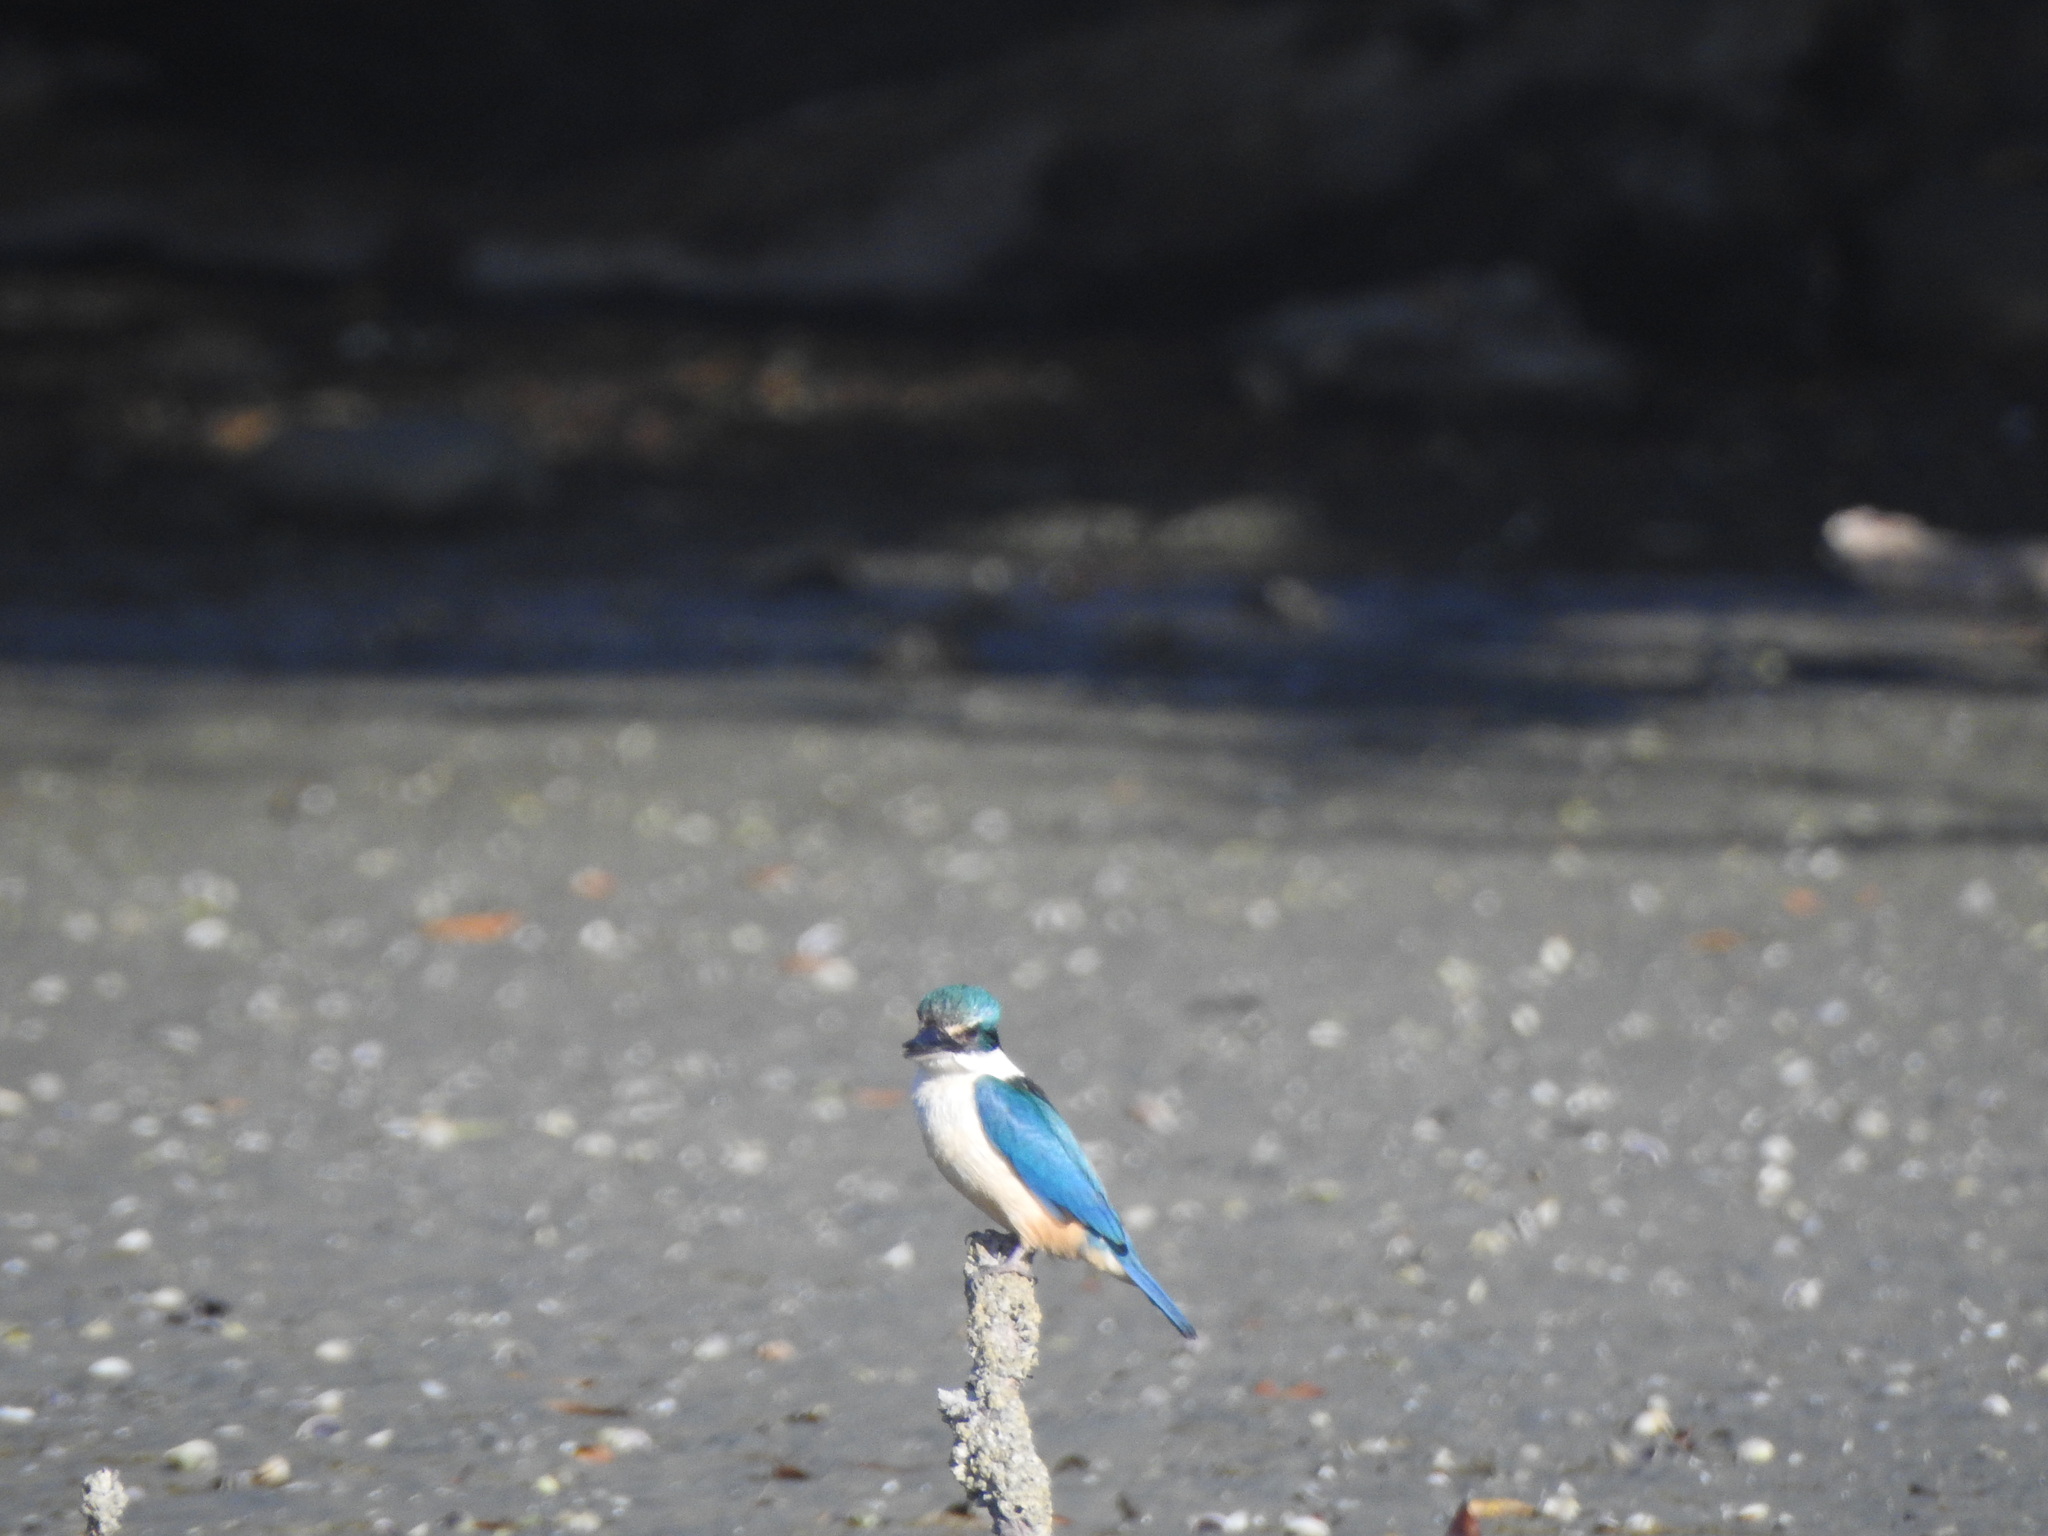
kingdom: Animalia
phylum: Chordata
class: Aves
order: Coraciiformes
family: Alcedinidae
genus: Todiramphus
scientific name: Todiramphus sanctus
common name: Sacred kingfisher
